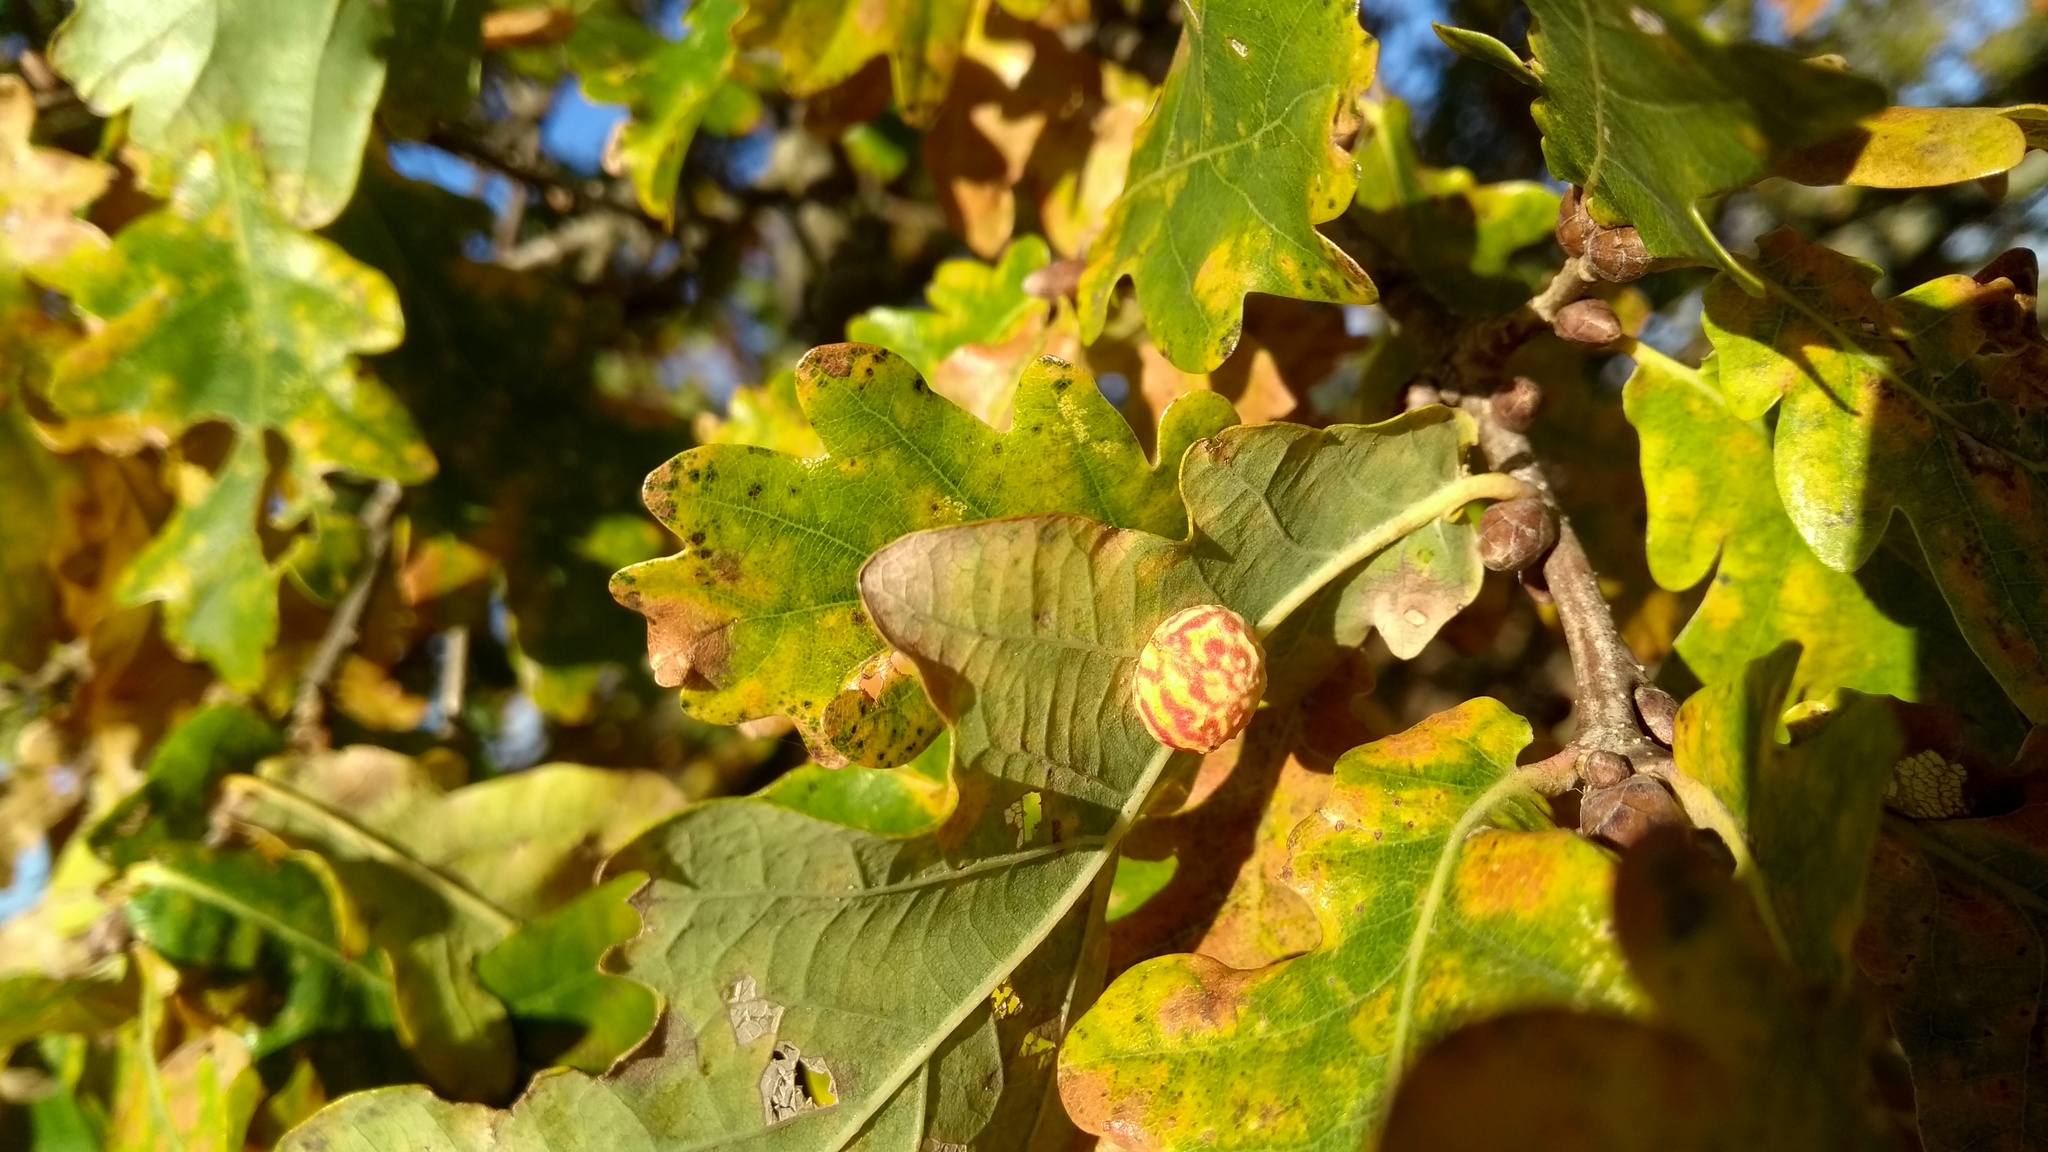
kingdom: Animalia
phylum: Arthropoda
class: Insecta
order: Hymenoptera
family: Cynipidae
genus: Cynips
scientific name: Cynips longiventris
